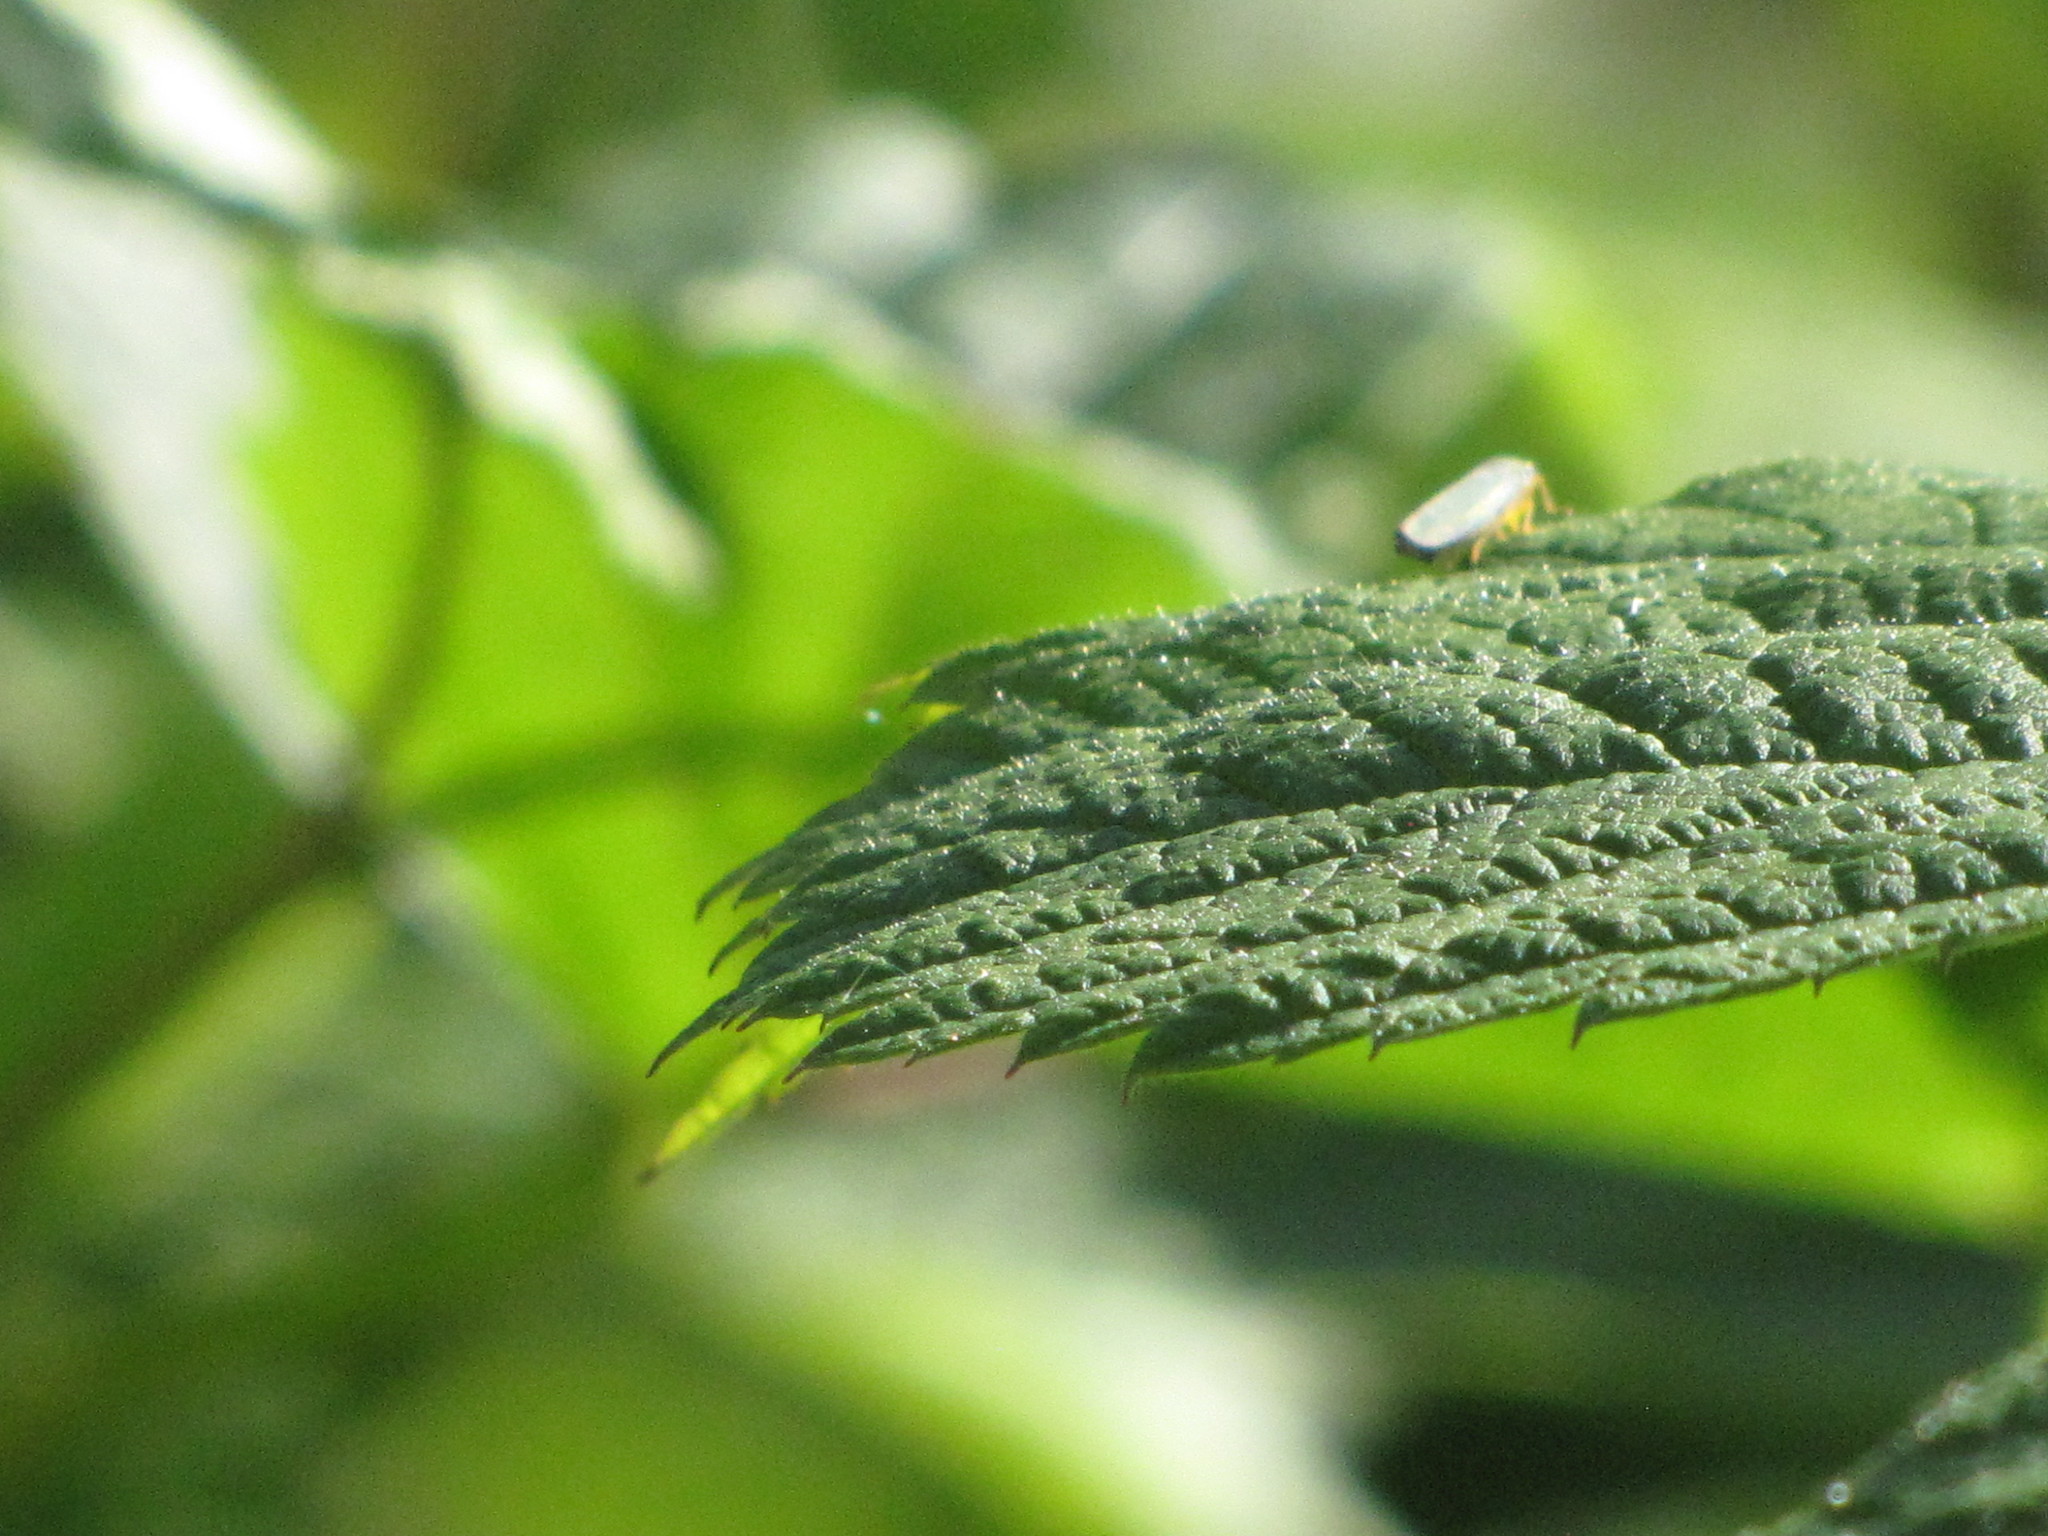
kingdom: Animalia
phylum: Arthropoda
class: Insecta
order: Hemiptera
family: Cicadellidae
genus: Graphocephala
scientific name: Graphocephala atropunctata
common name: Blue-green sharpshooter
